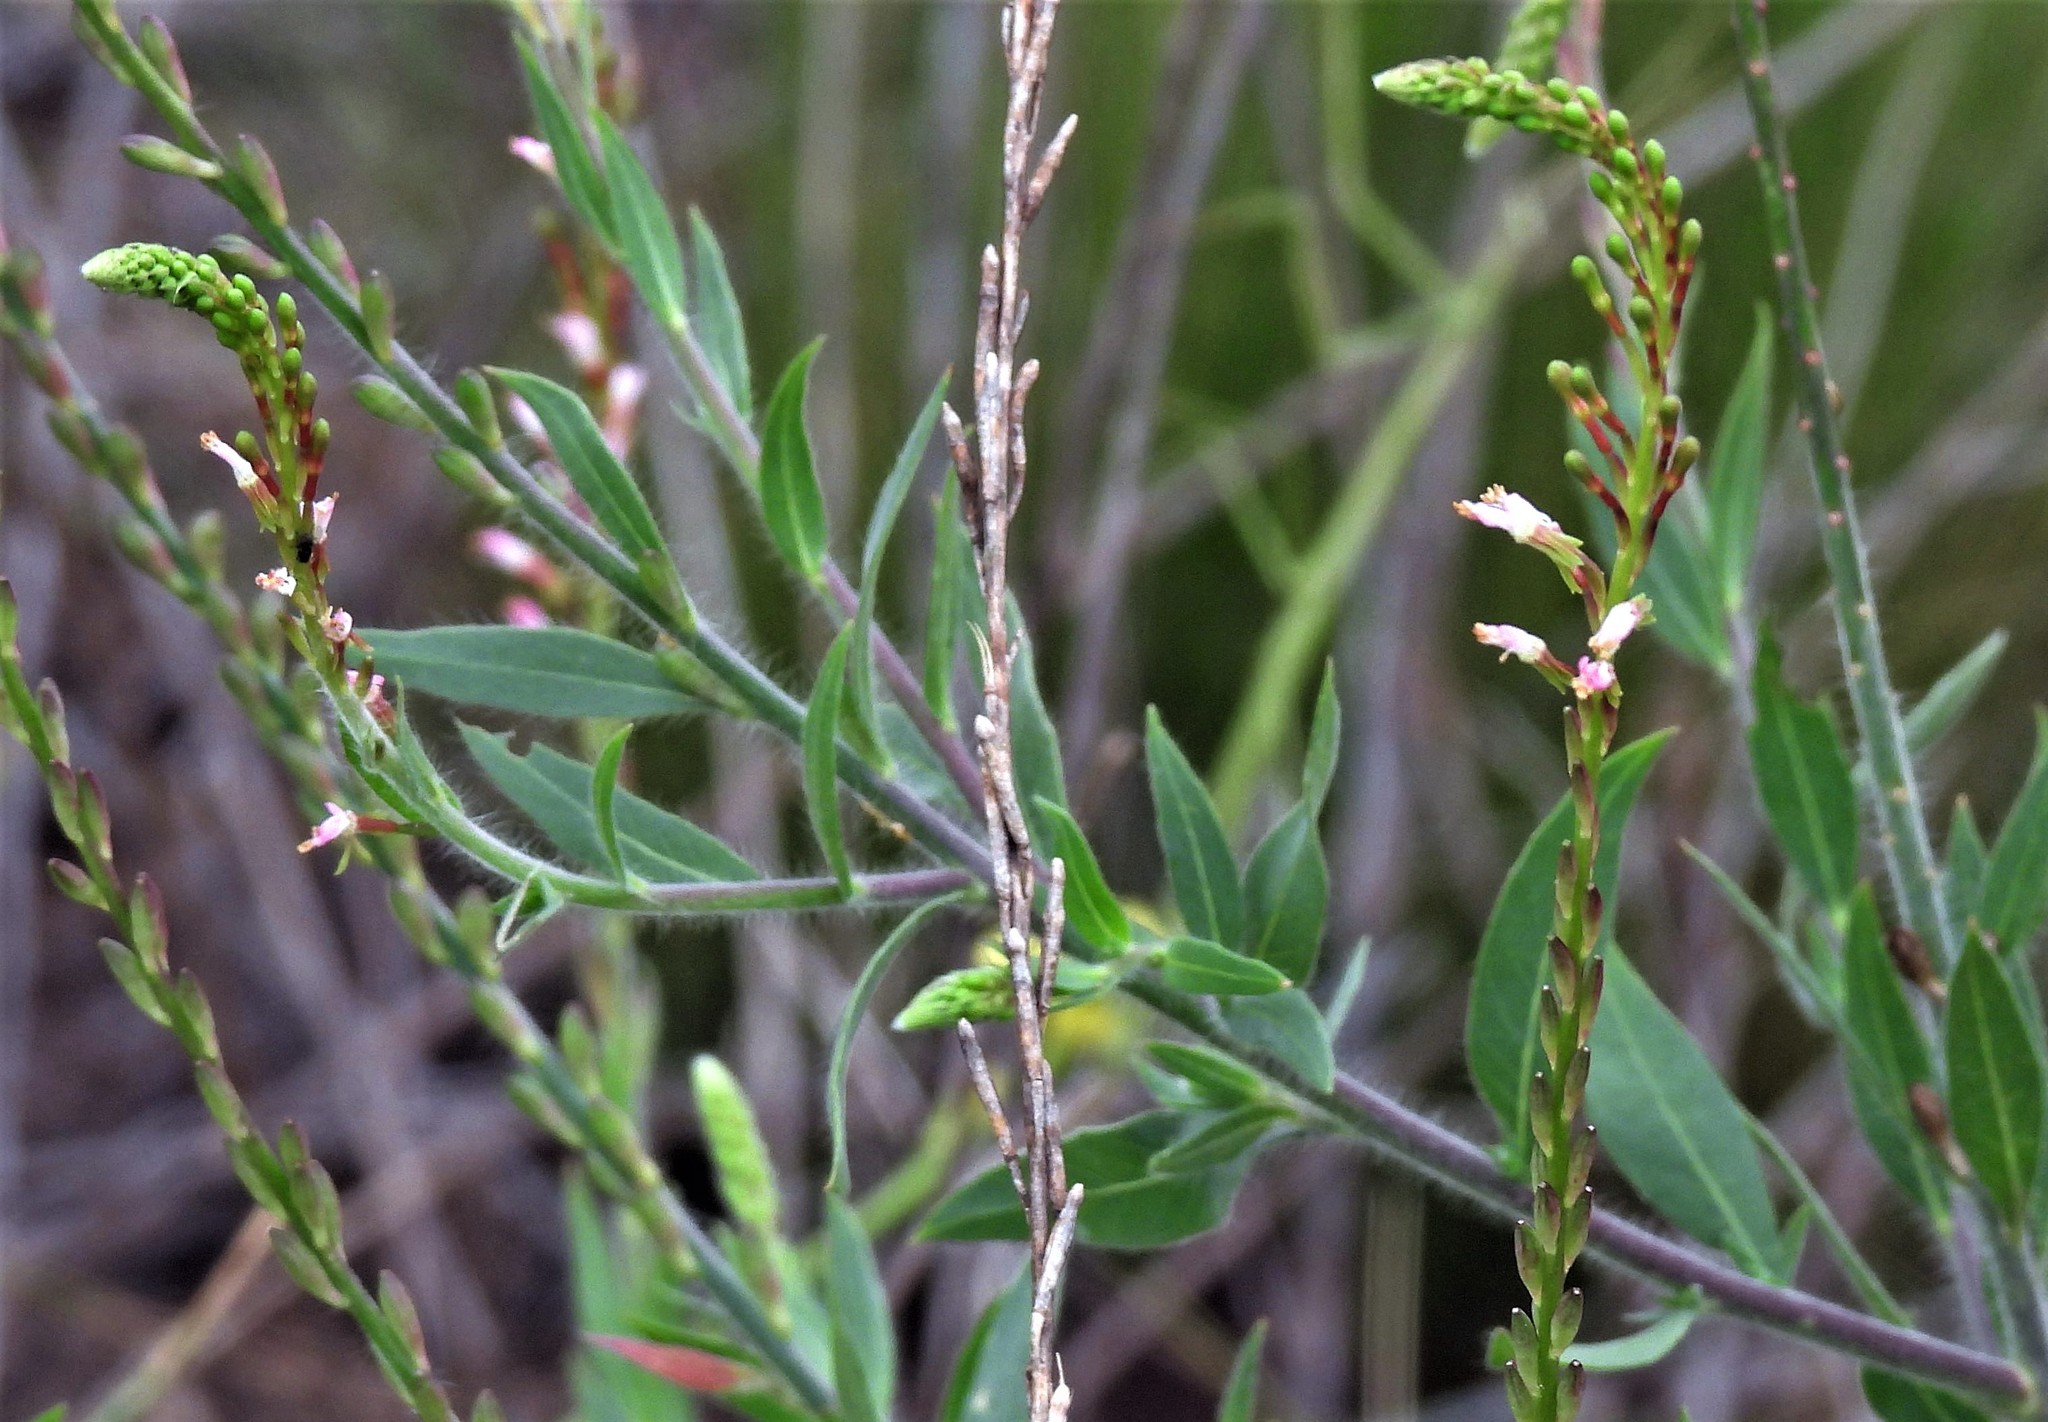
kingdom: Plantae
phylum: Tracheophyta
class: Magnoliopsida
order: Myrtales
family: Onagraceae
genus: Oenothera
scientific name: Oenothera curtiflora
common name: Velvetweed
